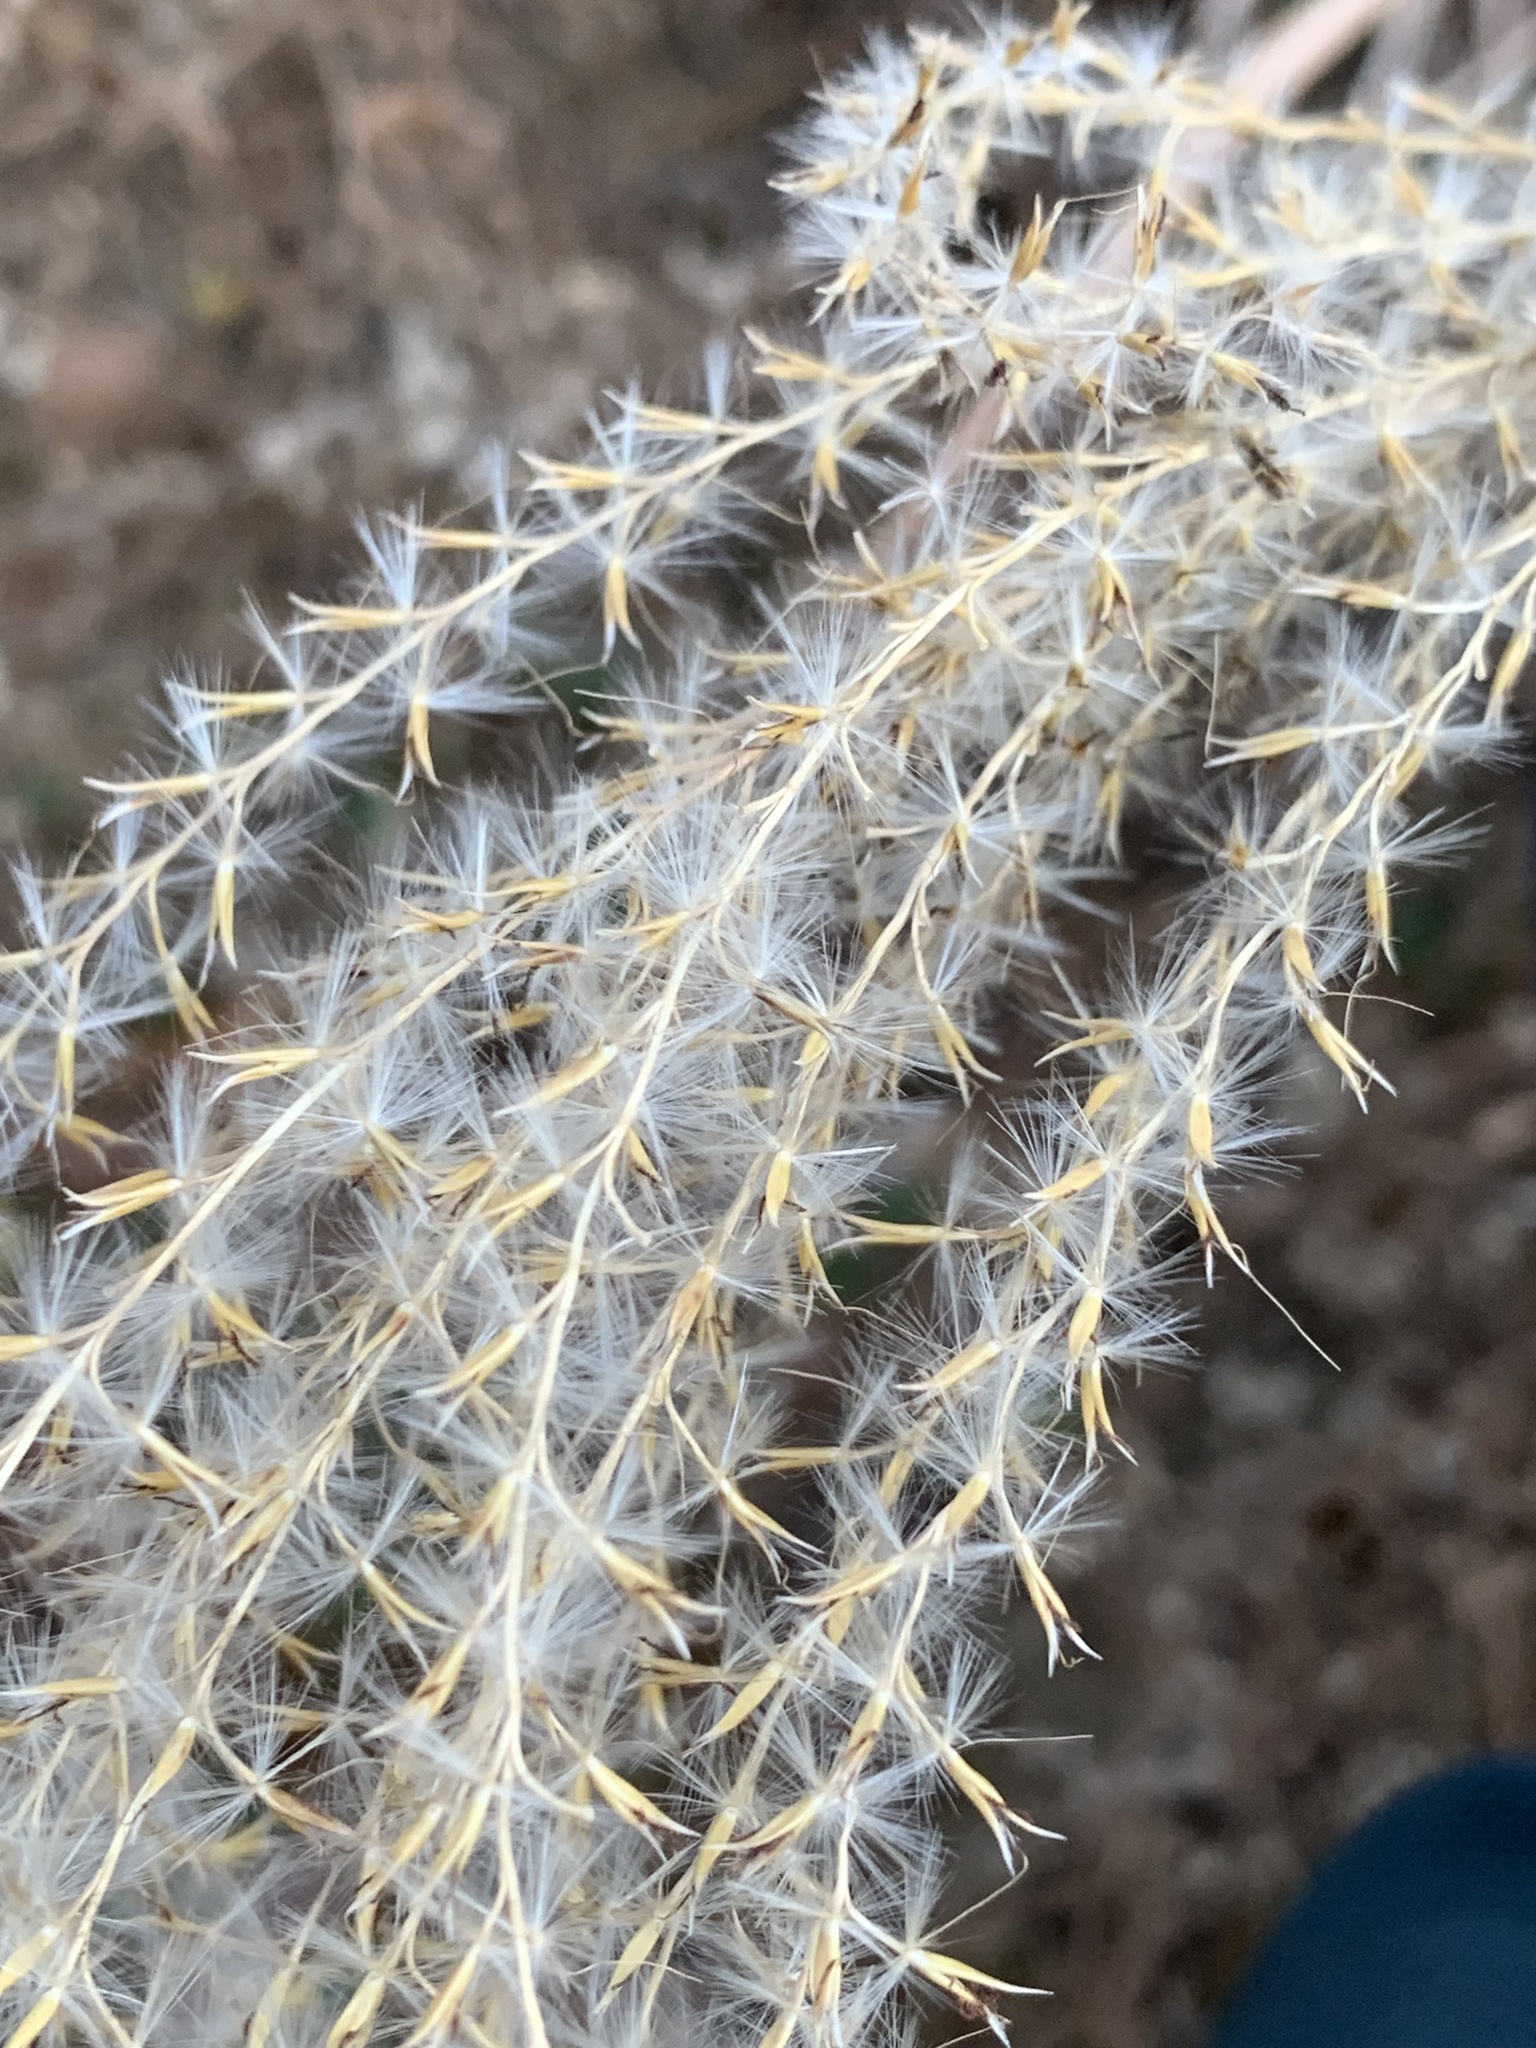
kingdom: Plantae
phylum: Tracheophyta
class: Liliopsida
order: Poales
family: Poaceae
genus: Miscanthus
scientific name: Miscanthus sinensis
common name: Chinese silvergrass
